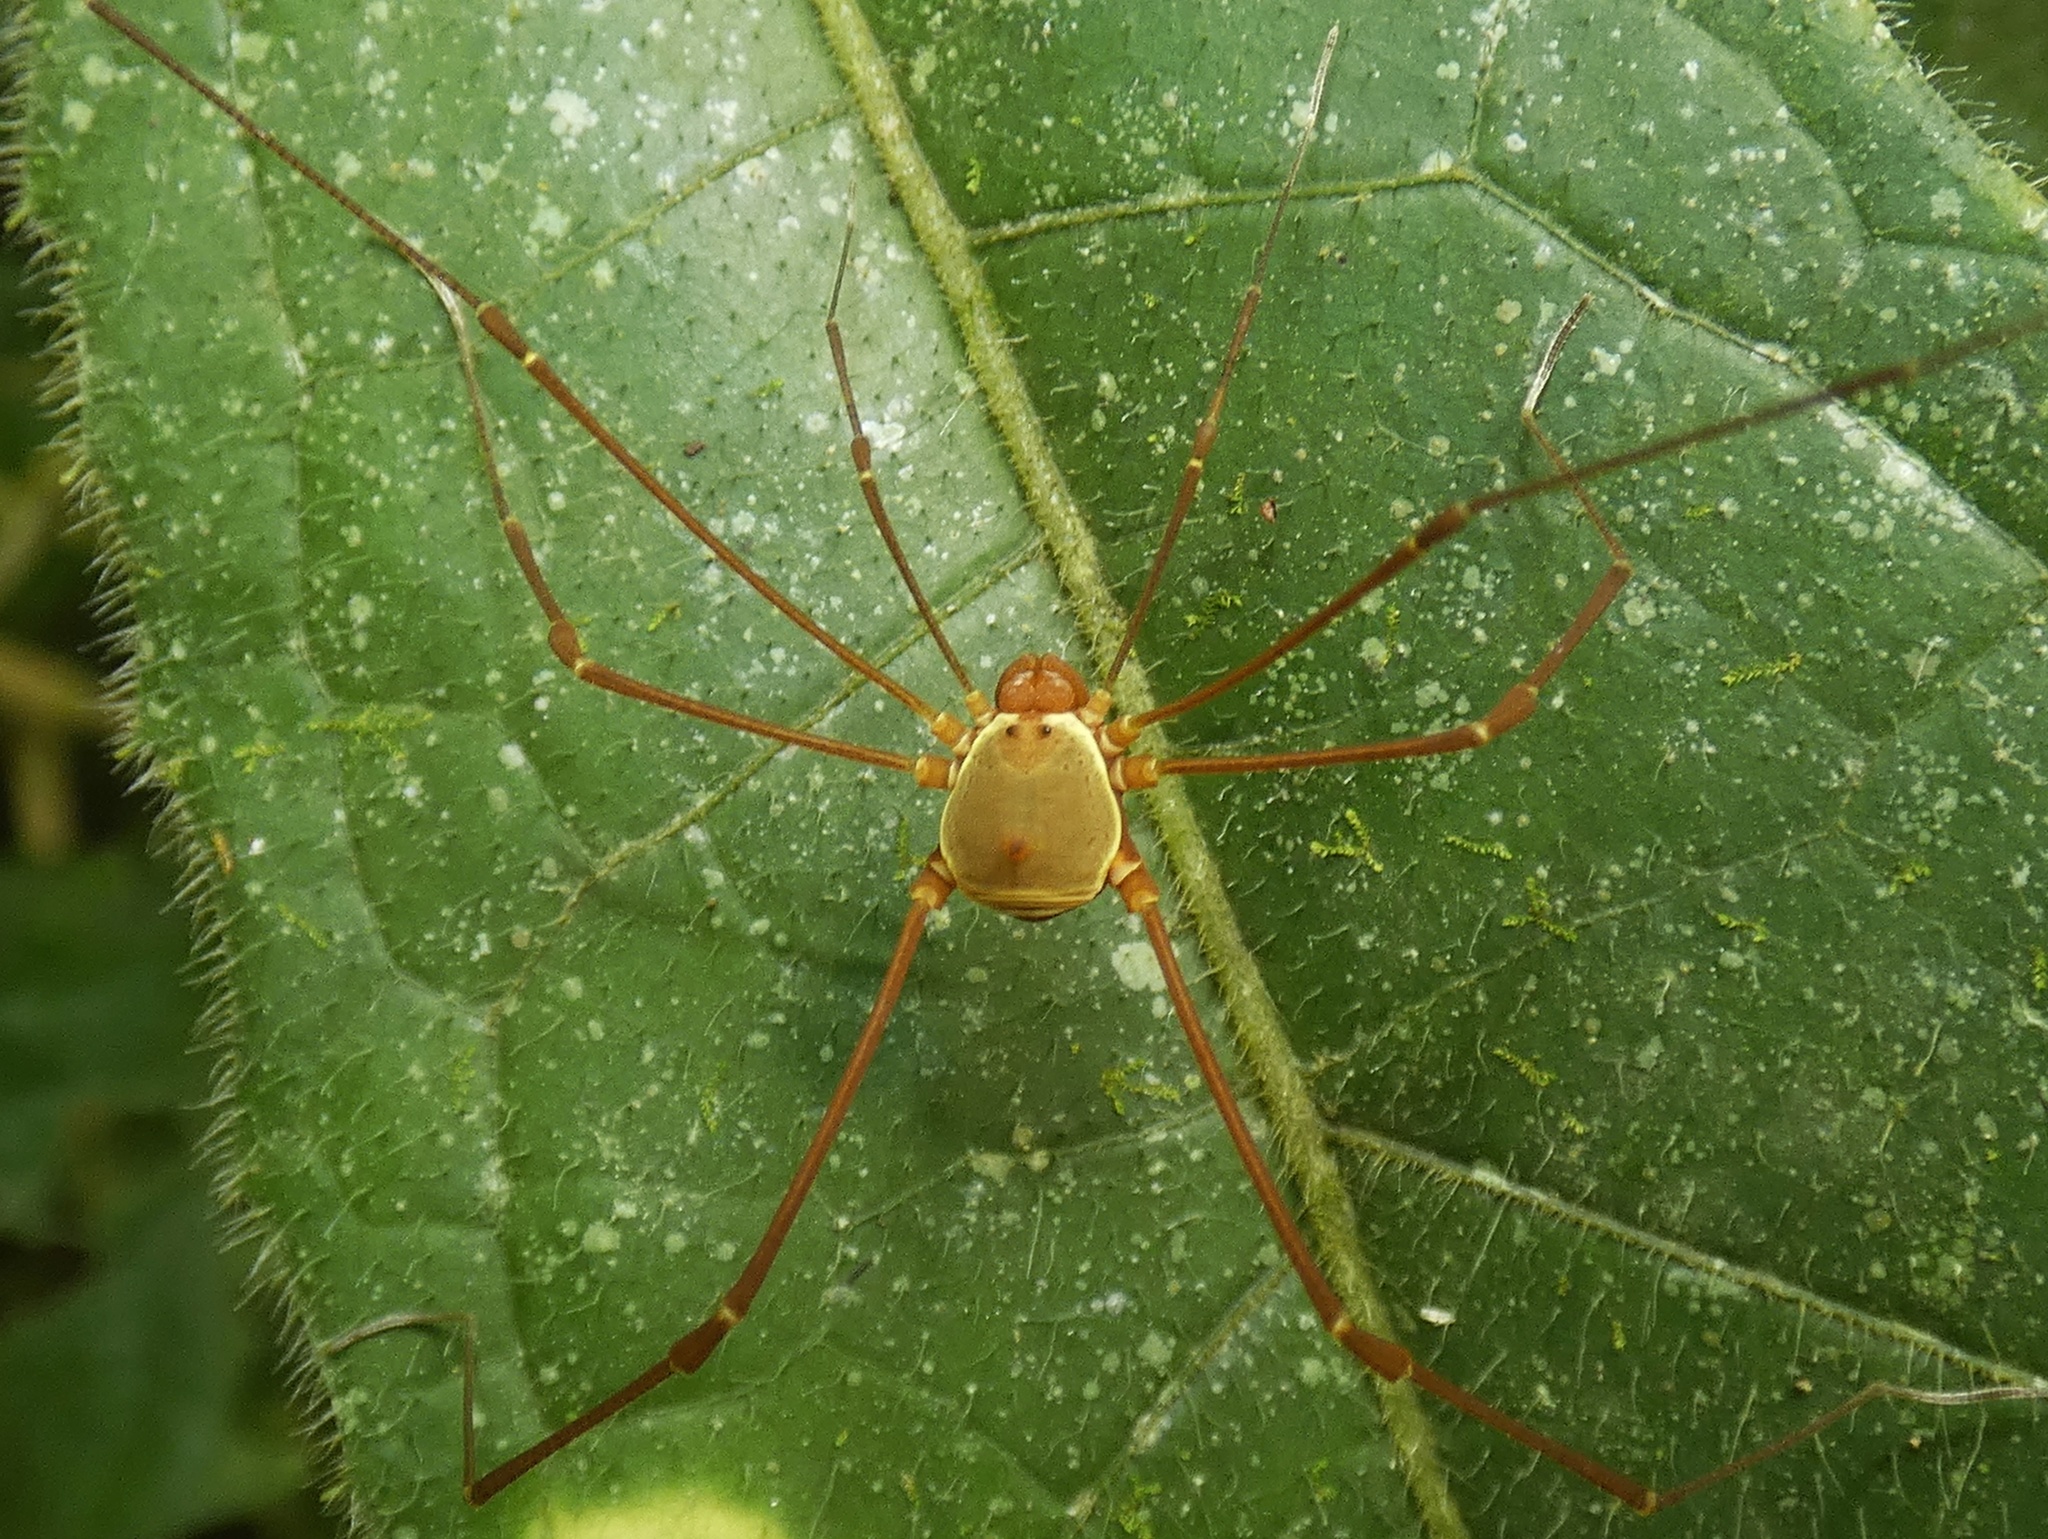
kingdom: Animalia
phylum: Arthropoda
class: Arachnida
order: Opiliones
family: Cosmetidae
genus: Cosmetus
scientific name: Cosmetus pulcher
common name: Harvestmen
